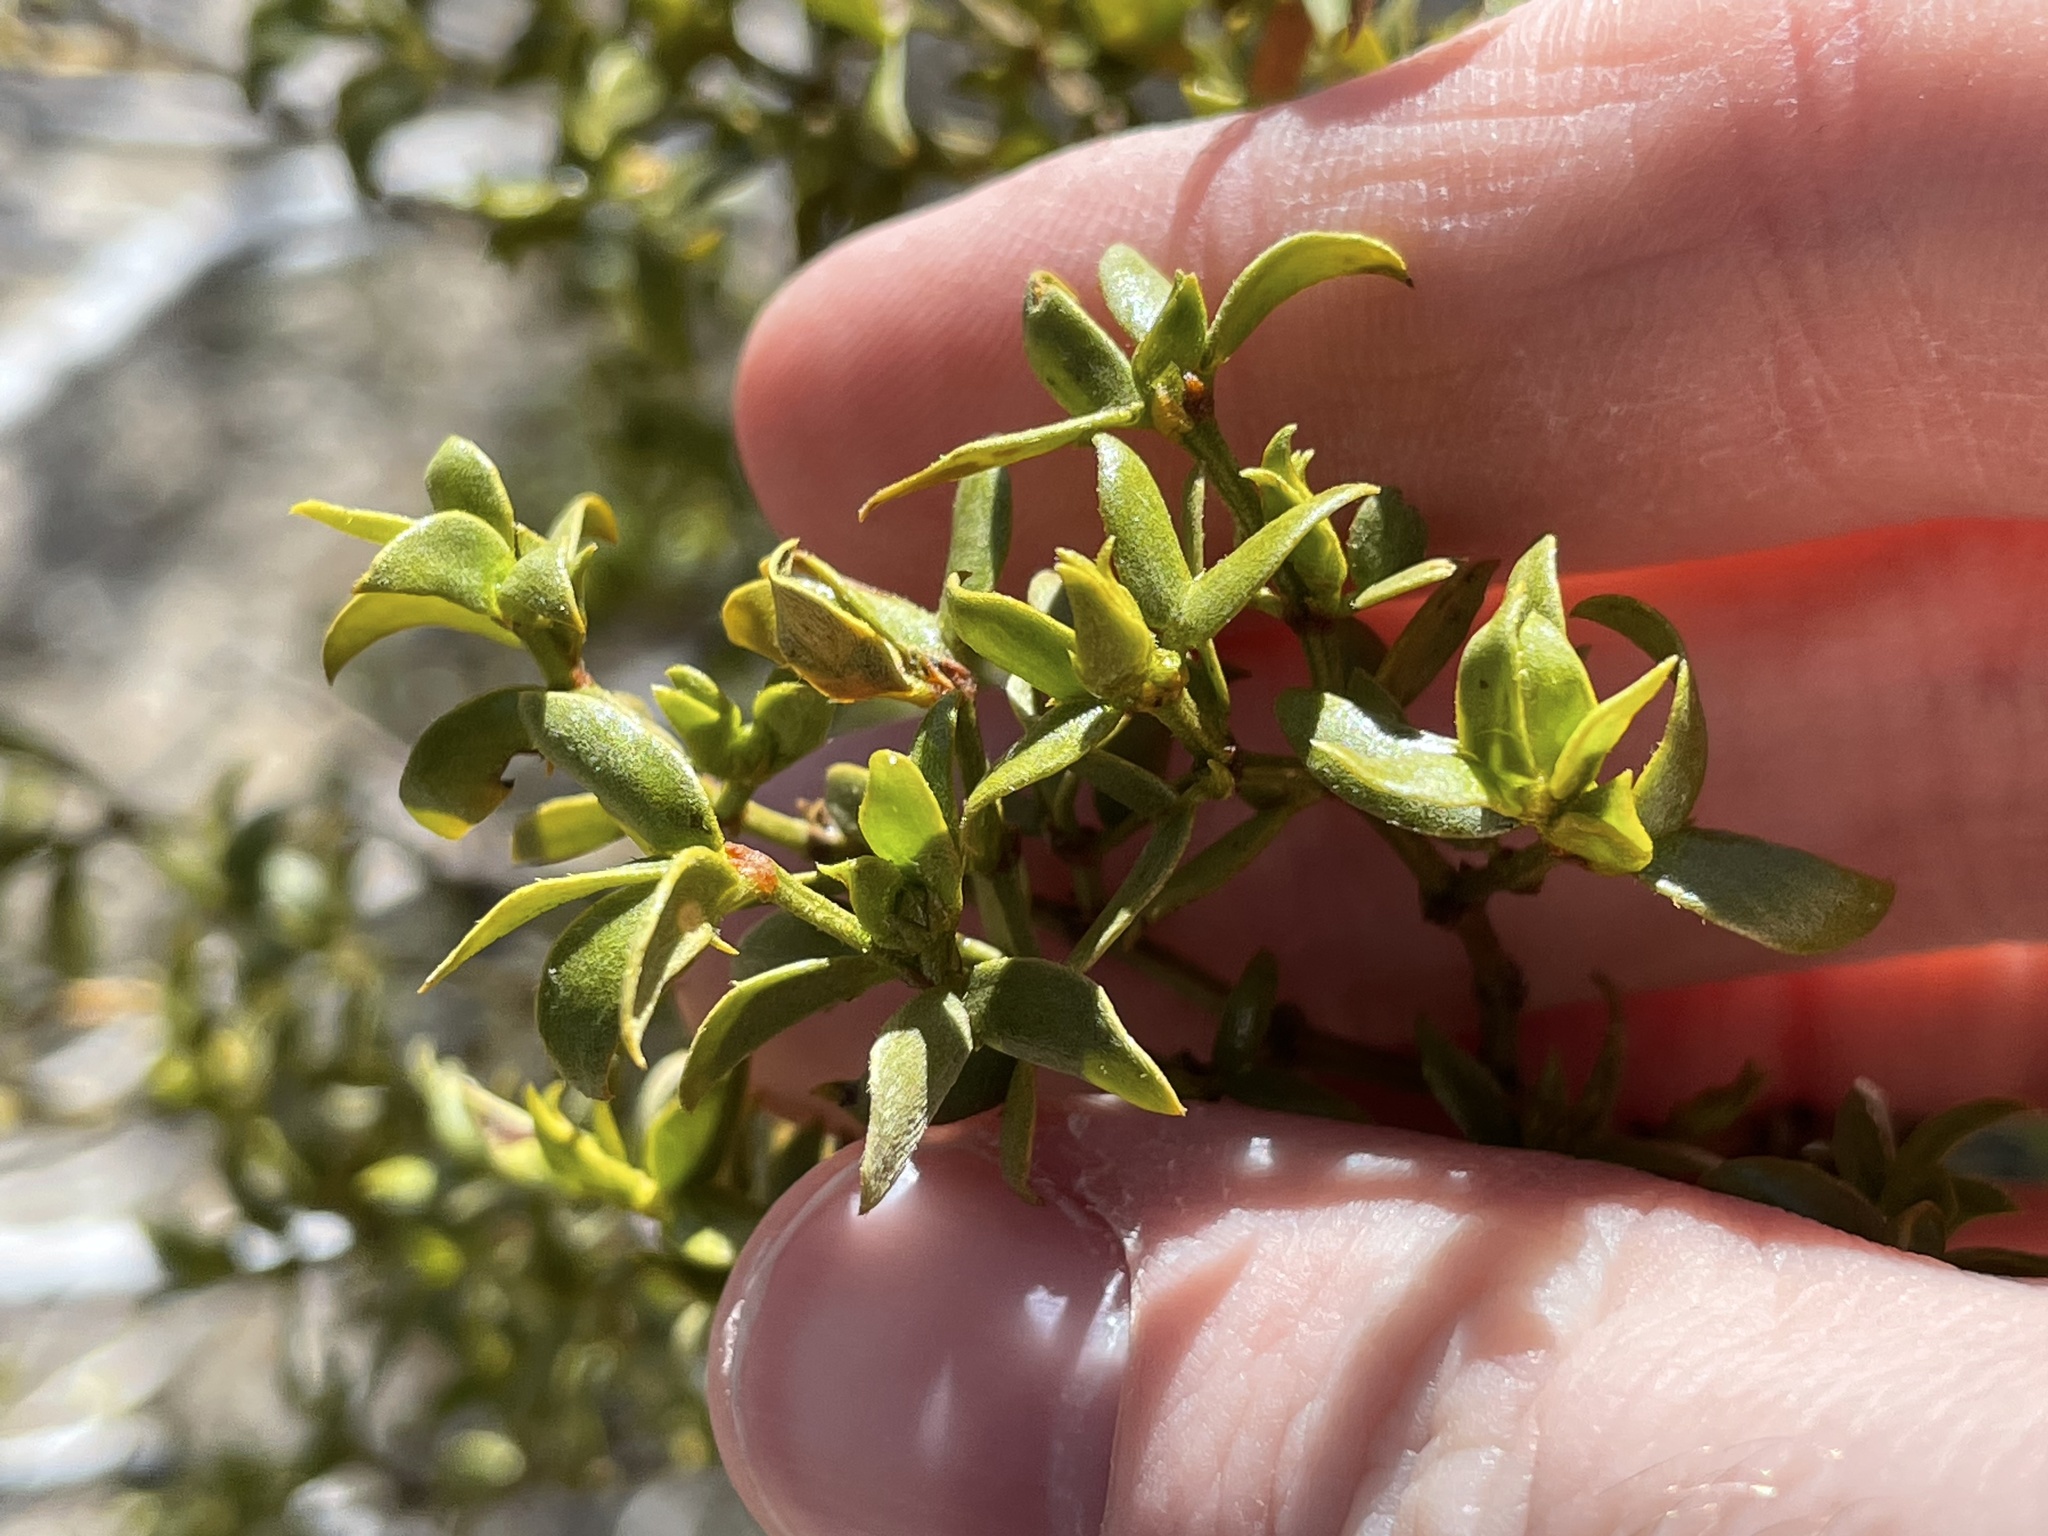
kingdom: Plantae
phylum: Tracheophyta
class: Magnoliopsida
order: Zygophyllales
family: Zygophyllaceae
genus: Larrea
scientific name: Larrea tridentata
